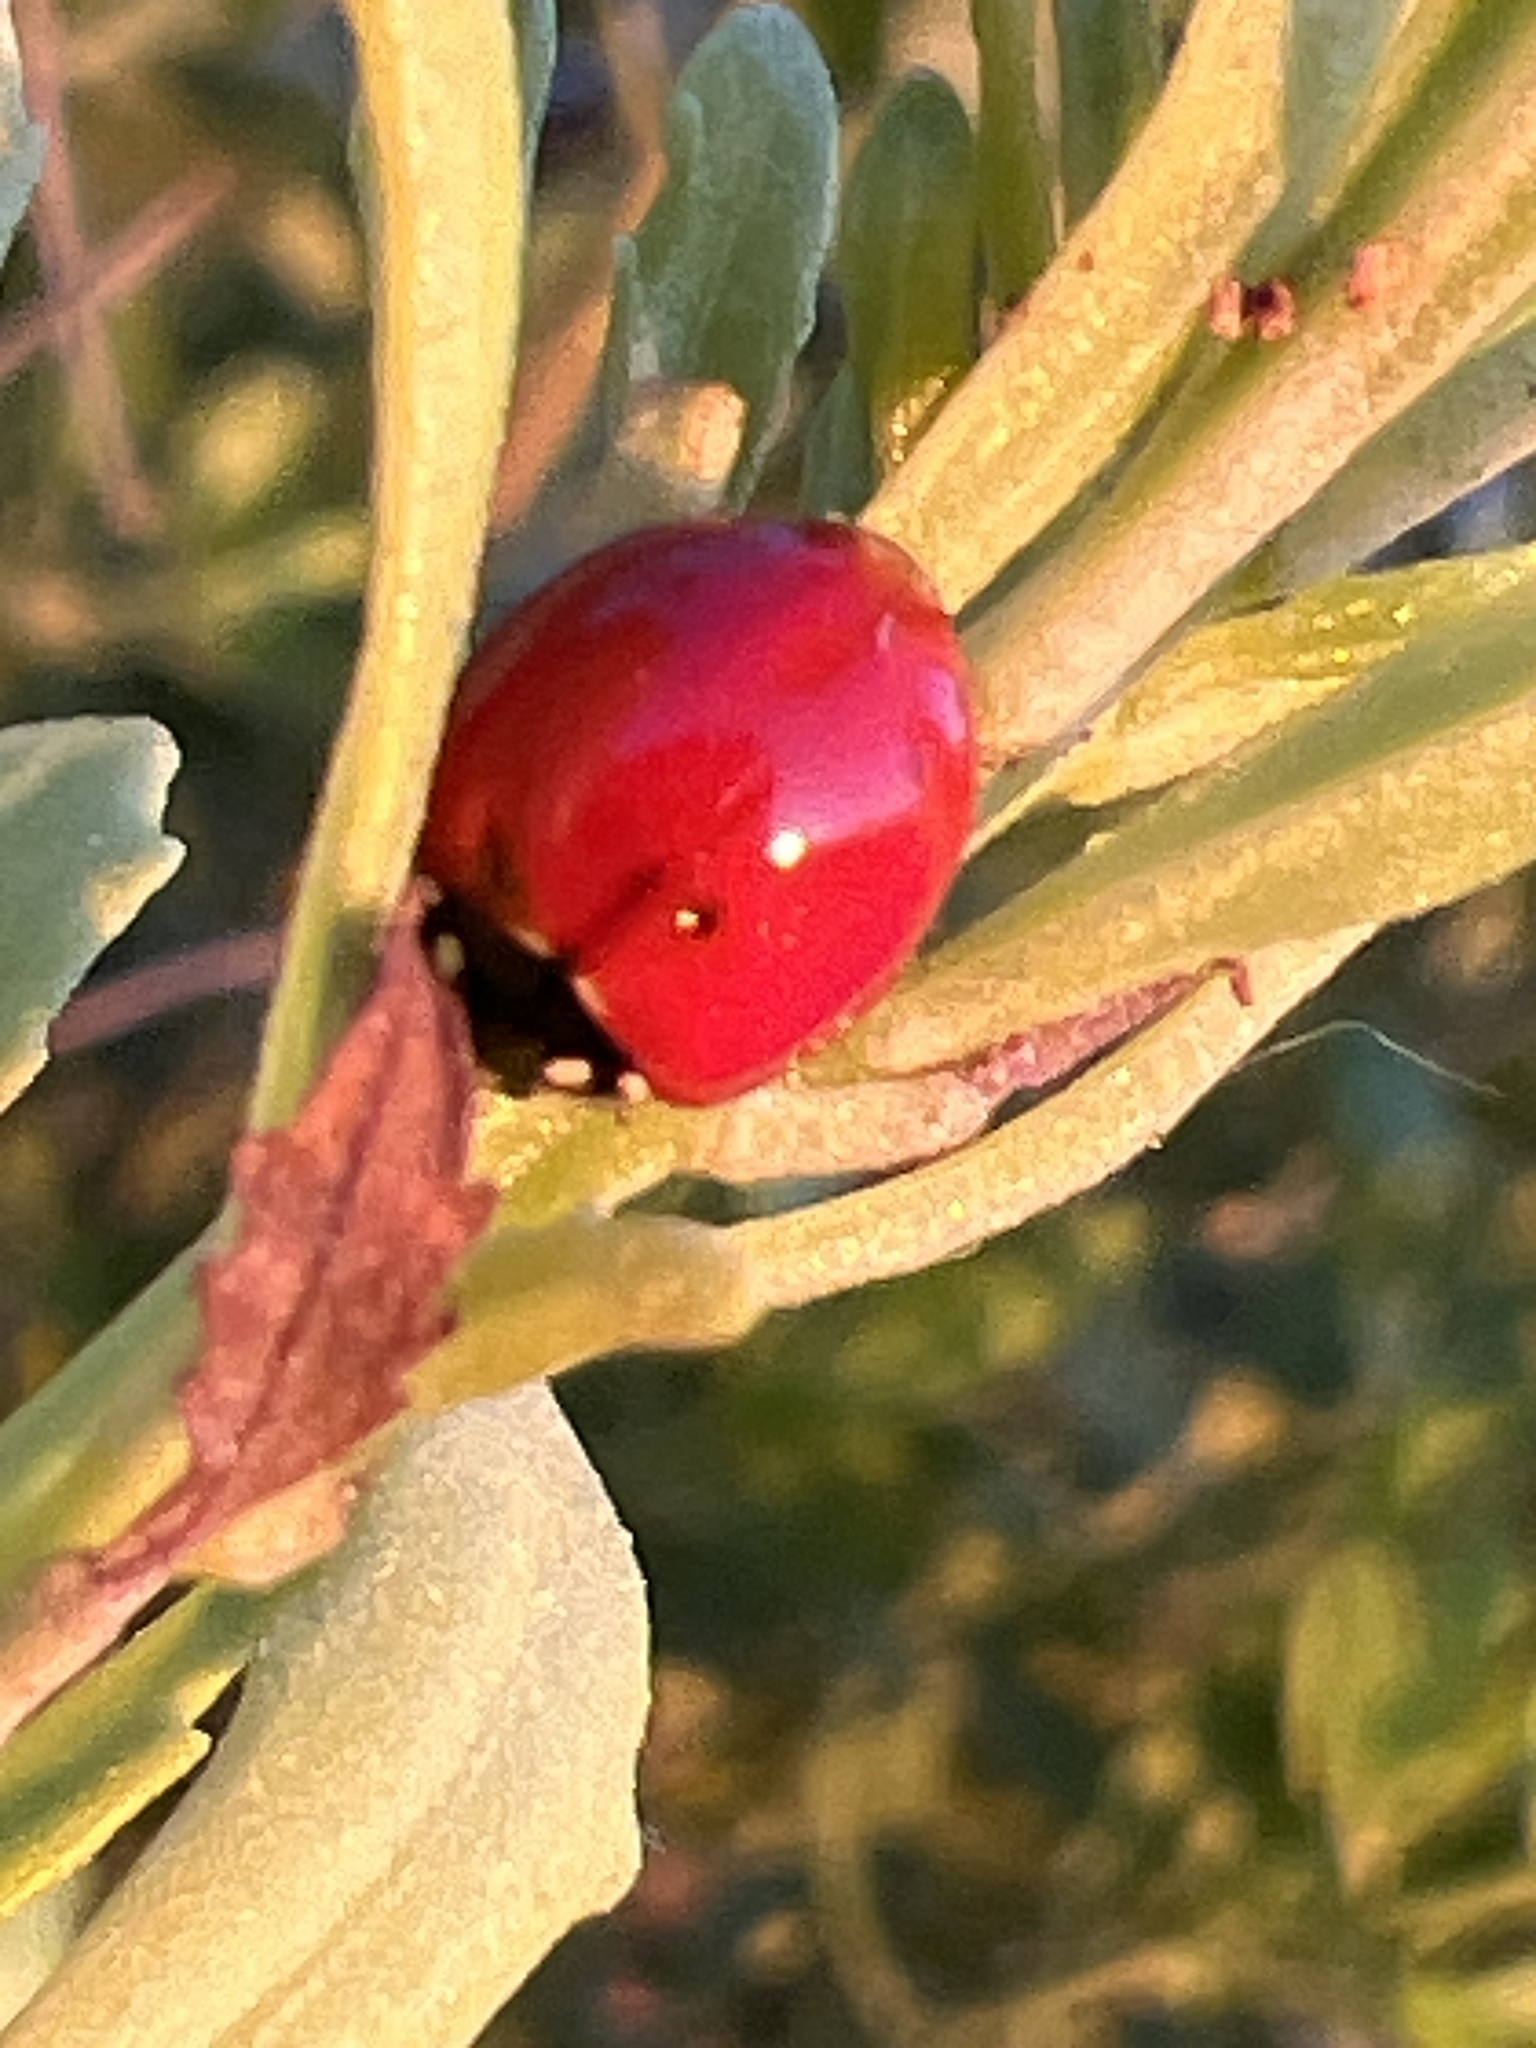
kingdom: Animalia
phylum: Arthropoda
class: Insecta
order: Coleoptera
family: Coccinellidae
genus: Cycloneda
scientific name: Cycloneda sanguinea
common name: Ladybird beetle
